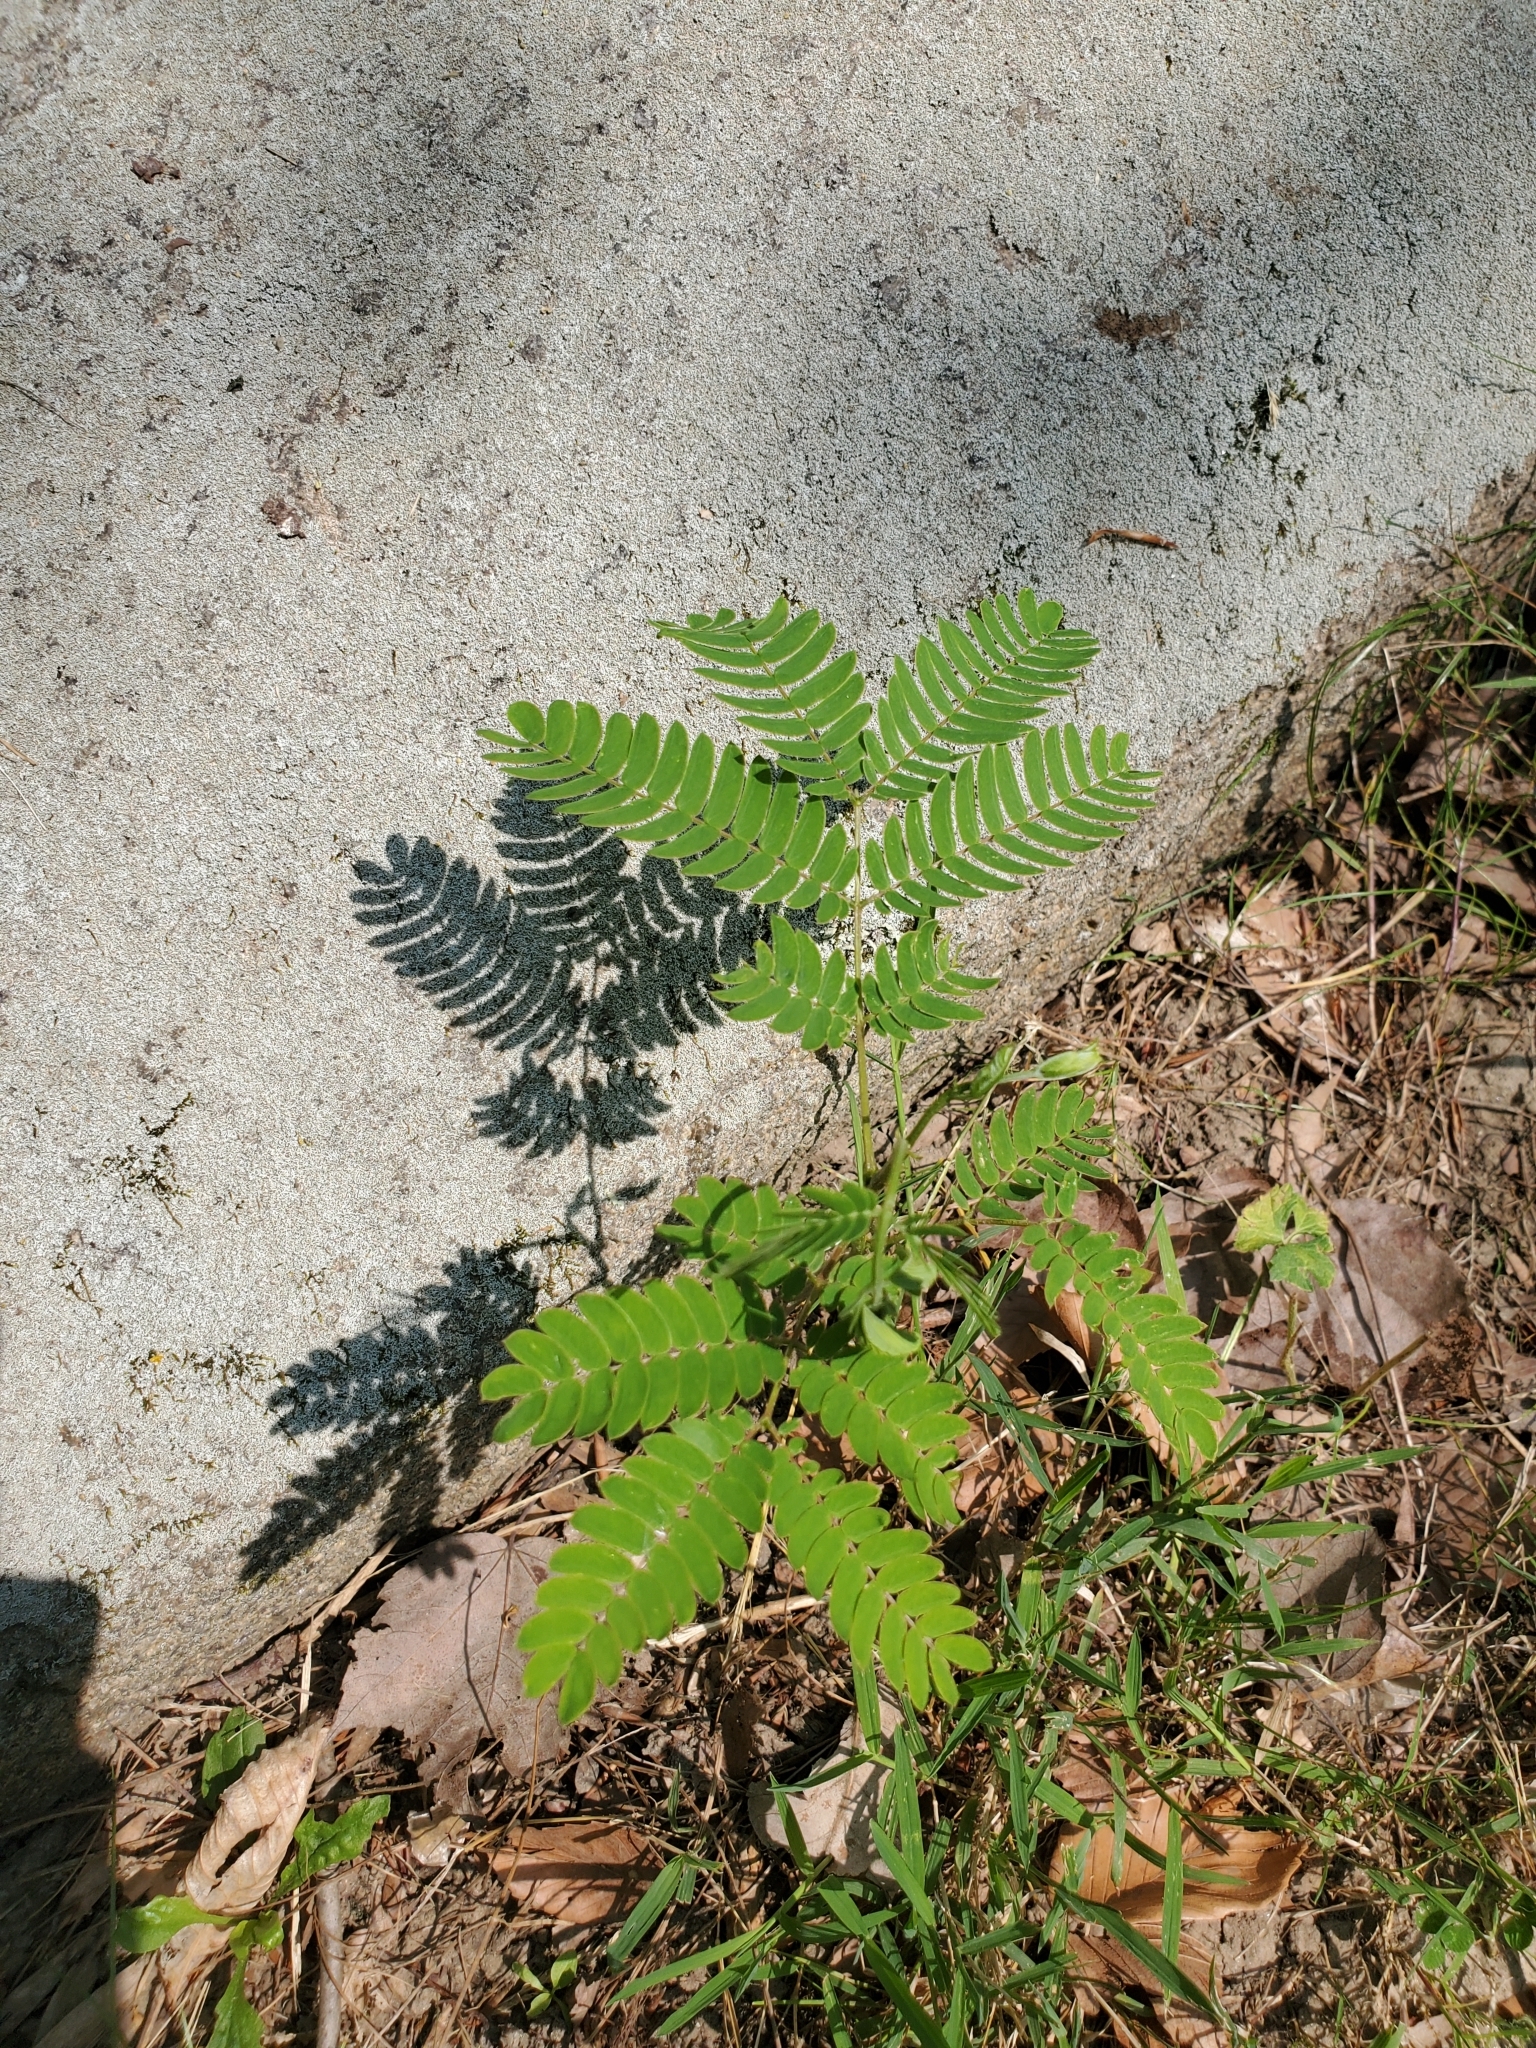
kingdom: Plantae
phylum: Tracheophyta
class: Magnoliopsida
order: Fabales
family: Fabaceae
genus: Albizia
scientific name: Albizia julibrissin
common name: Silktree
